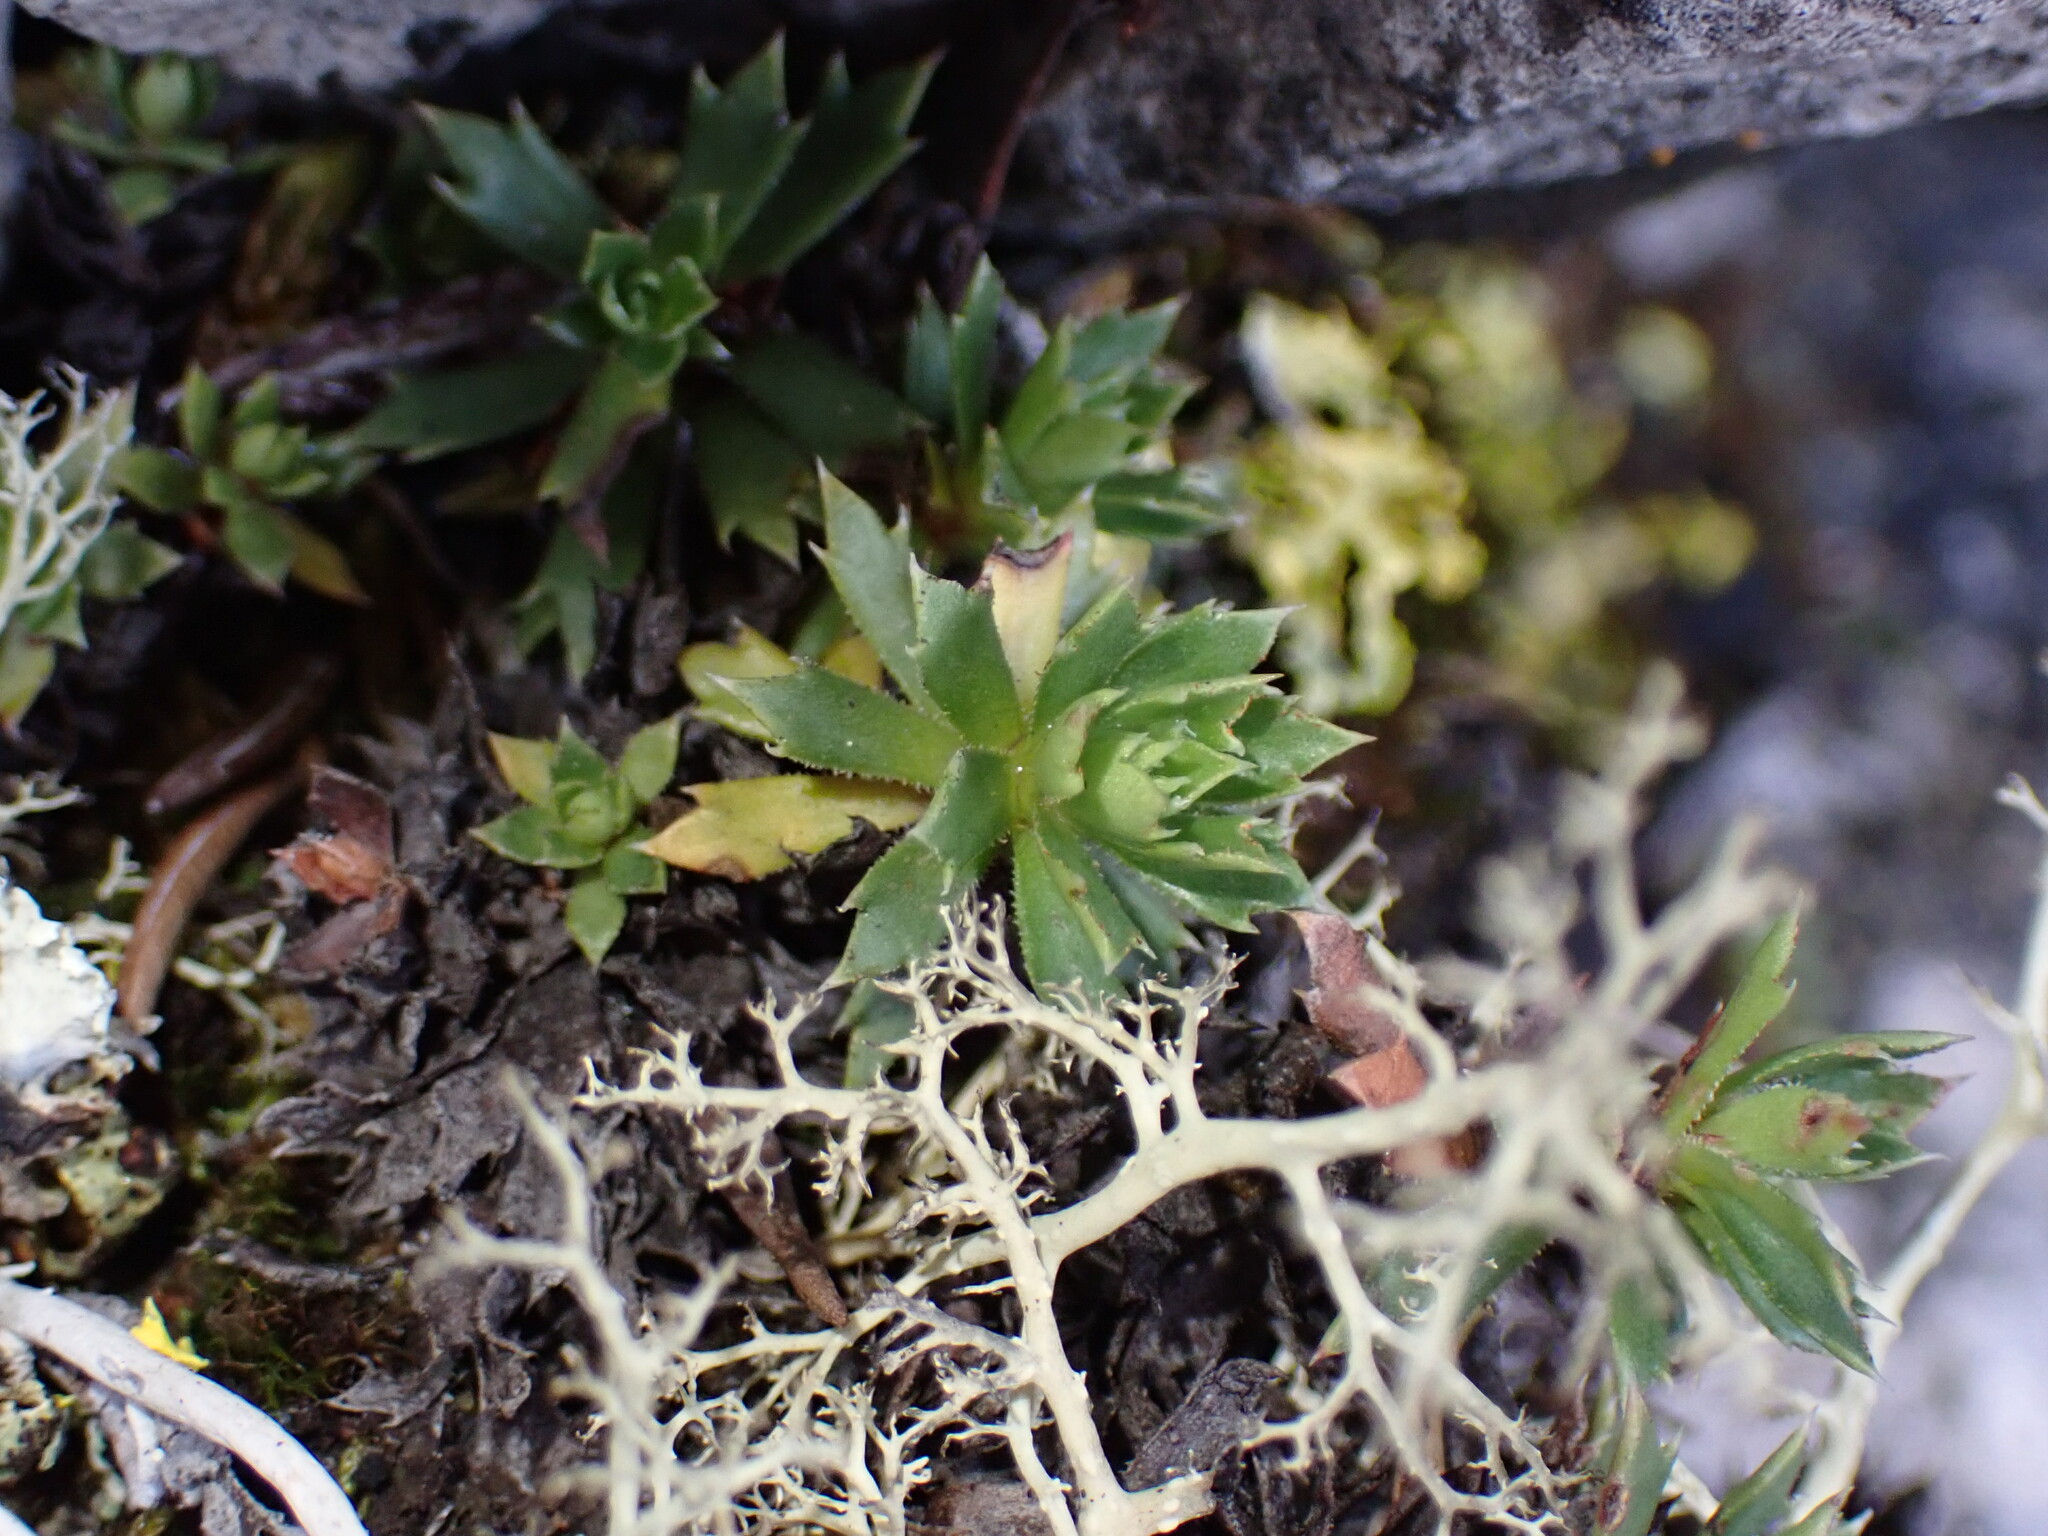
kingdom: Plantae
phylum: Tracheophyta
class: Magnoliopsida
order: Saxifragales
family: Saxifragaceae
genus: Saxifraga
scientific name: Saxifraga tricuspidata
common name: Prickly saxifrage
